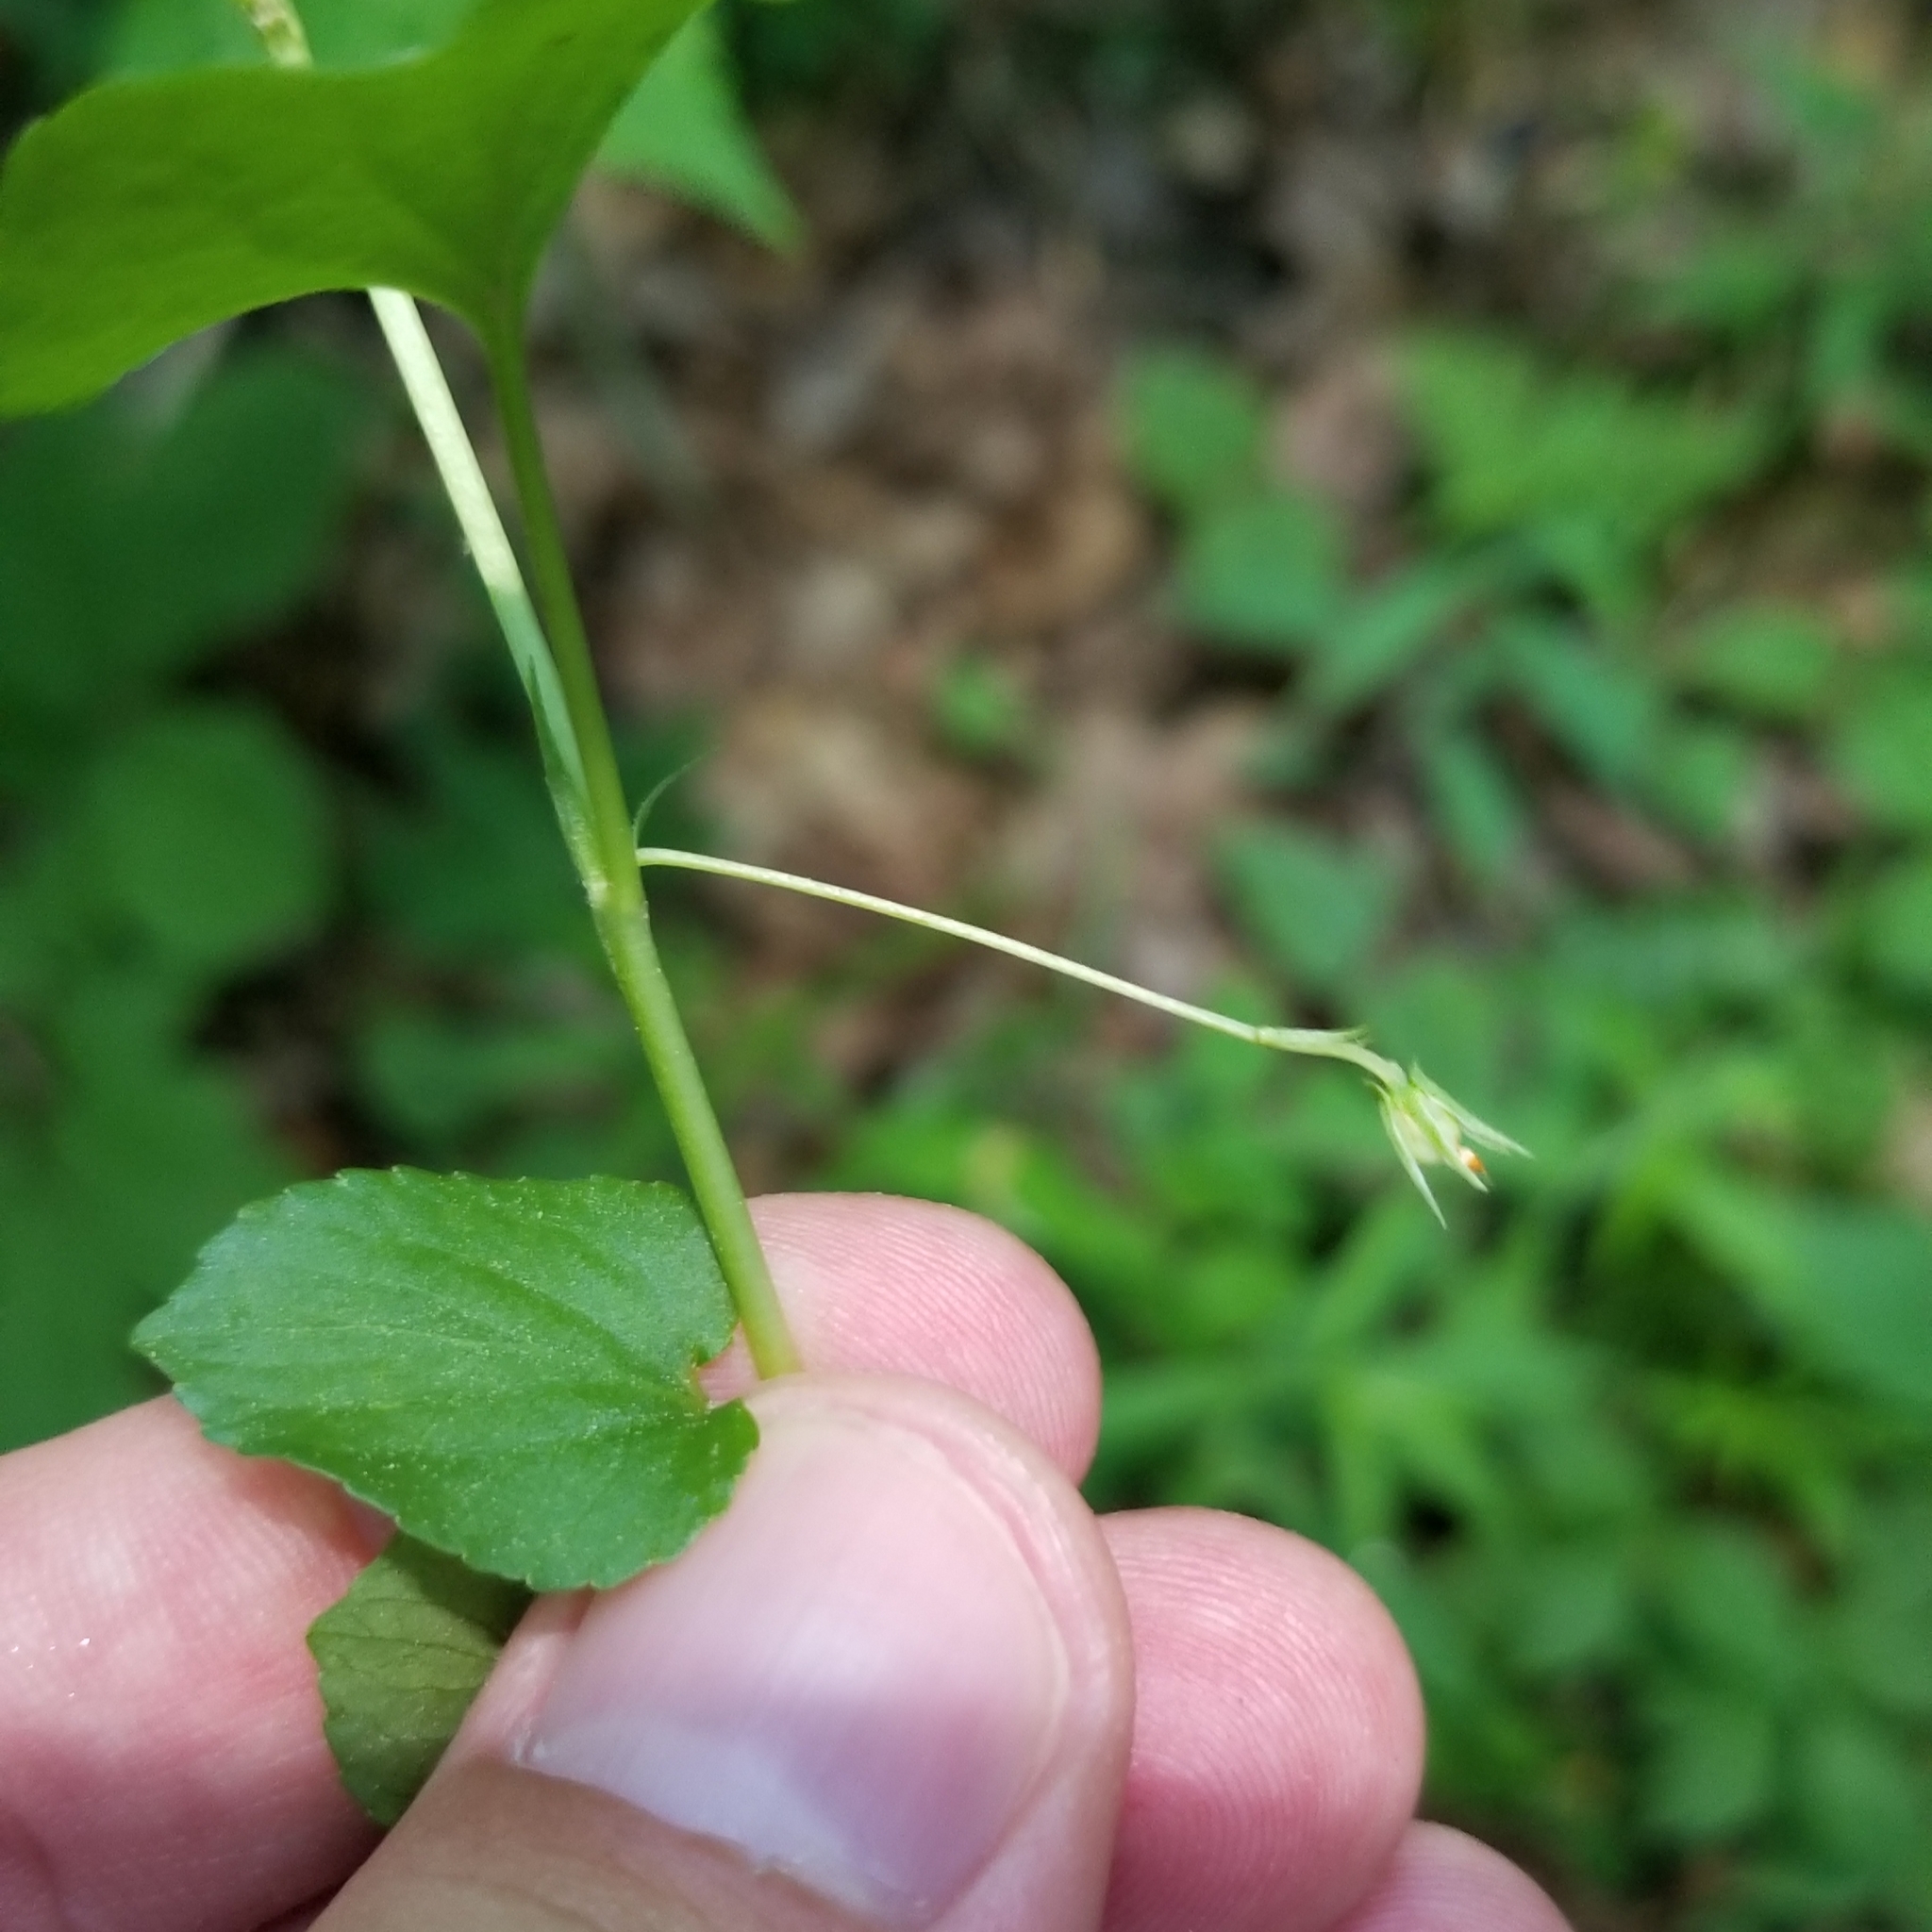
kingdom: Plantae
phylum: Tracheophyta
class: Magnoliopsida
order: Malpighiales
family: Violaceae
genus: Viola
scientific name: Viola labradorica
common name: Labrador violet
